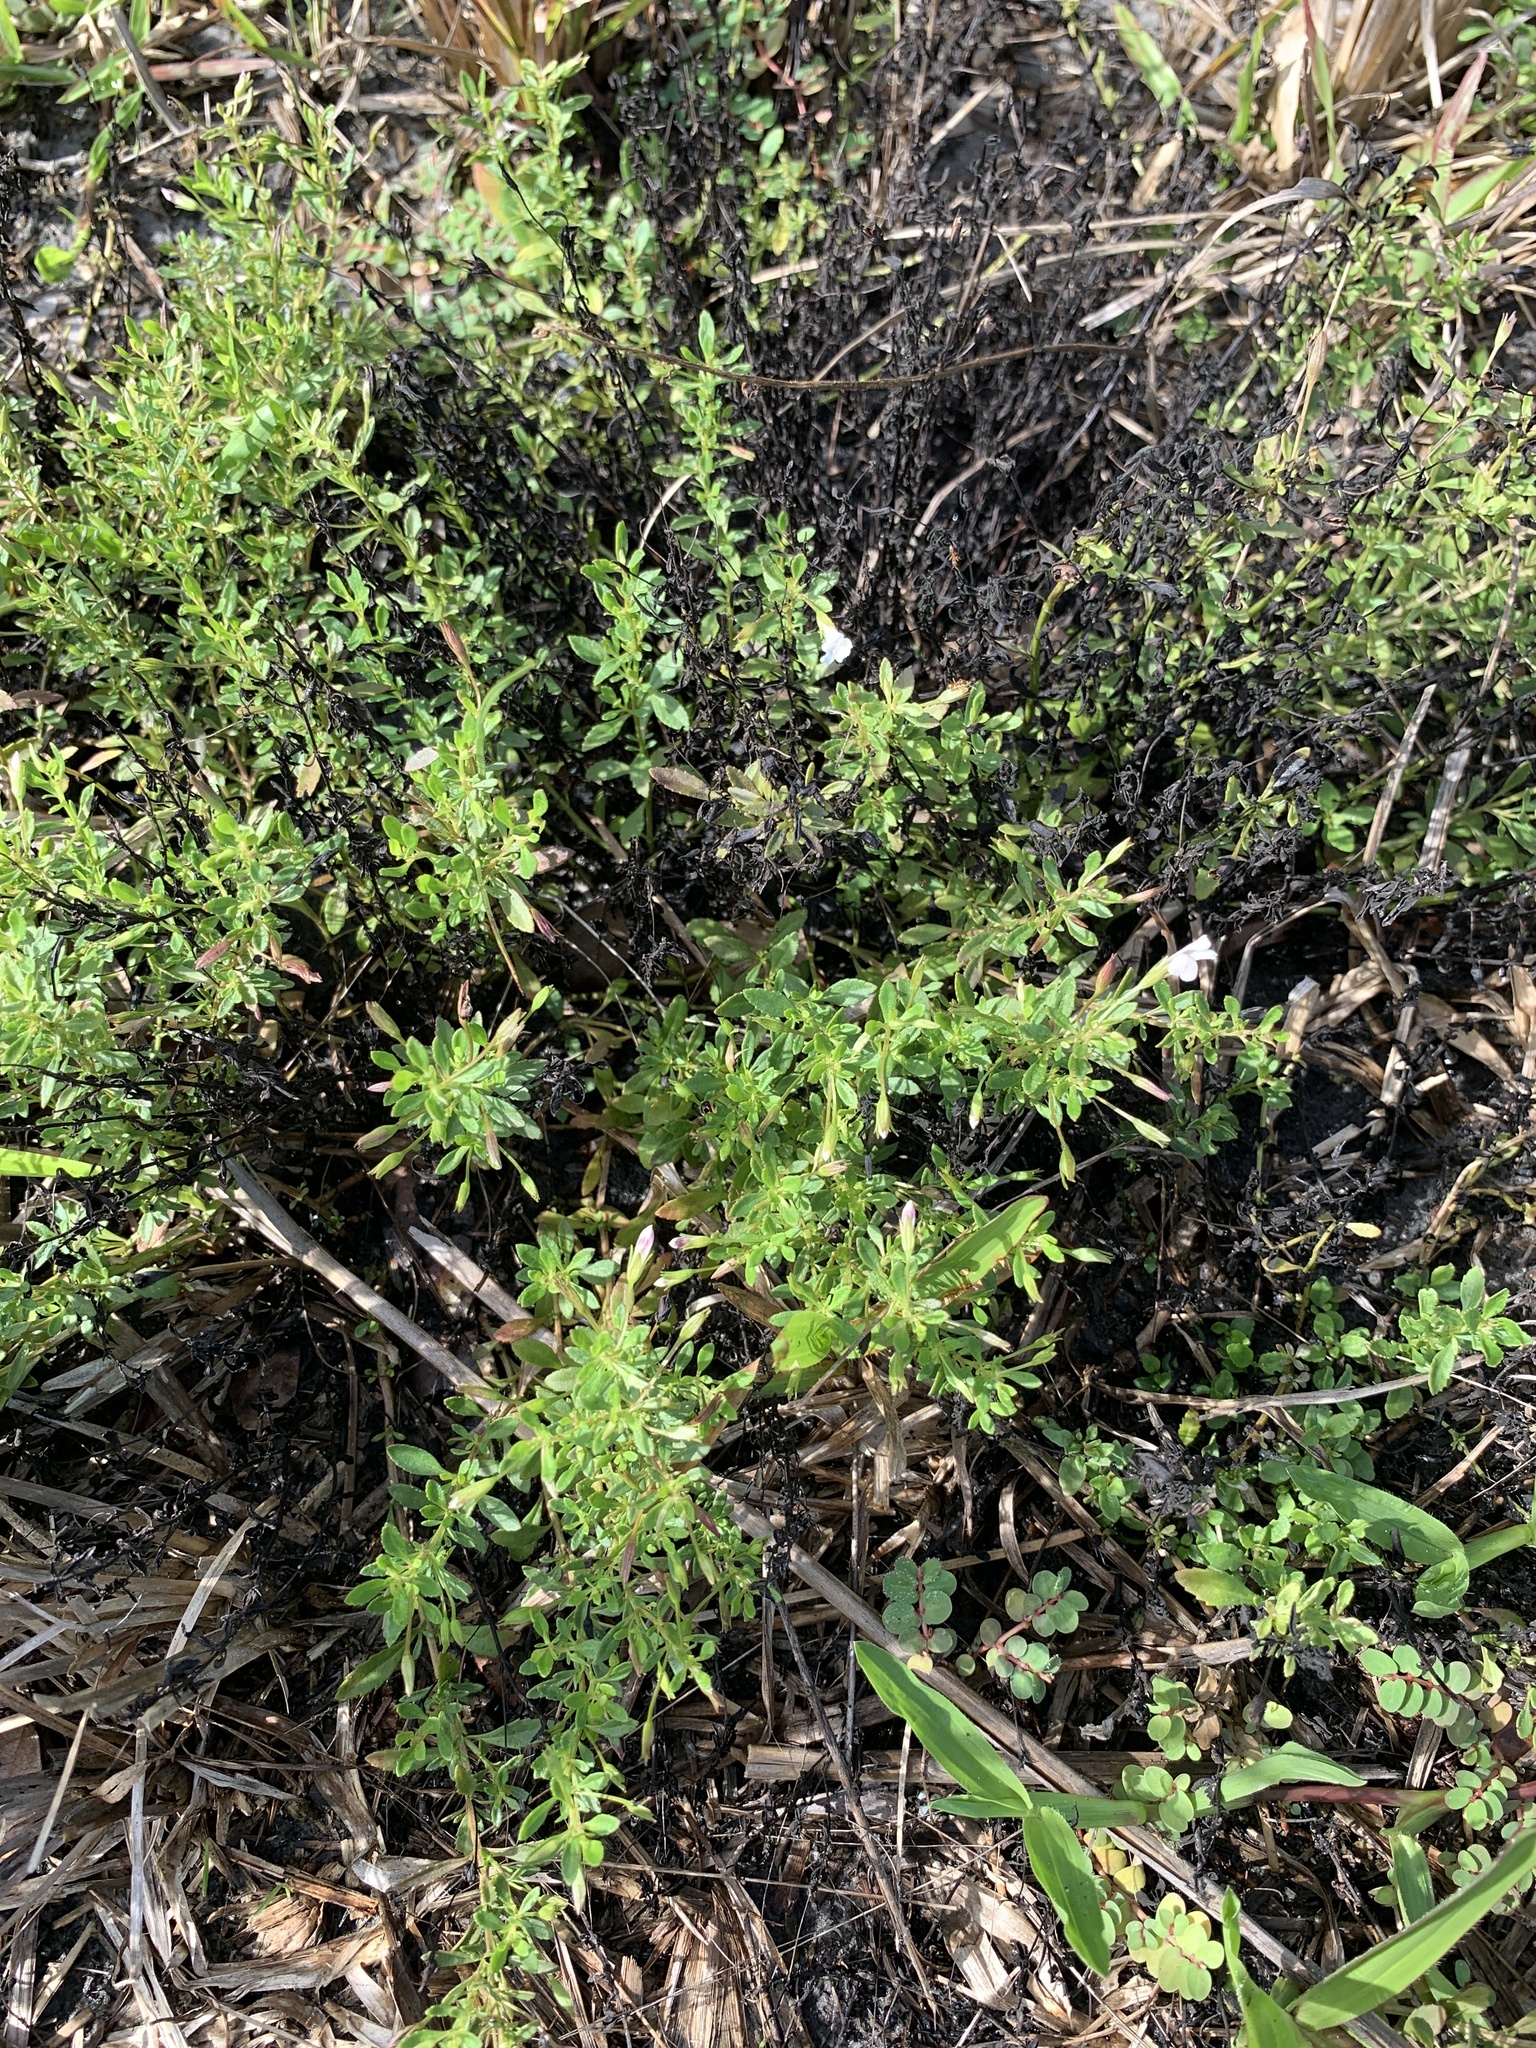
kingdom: Plantae
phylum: Tracheophyta
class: Magnoliopsida
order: Lamiales
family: Plantaginaceae
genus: Mecardonia
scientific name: Mecardonia acuminata
